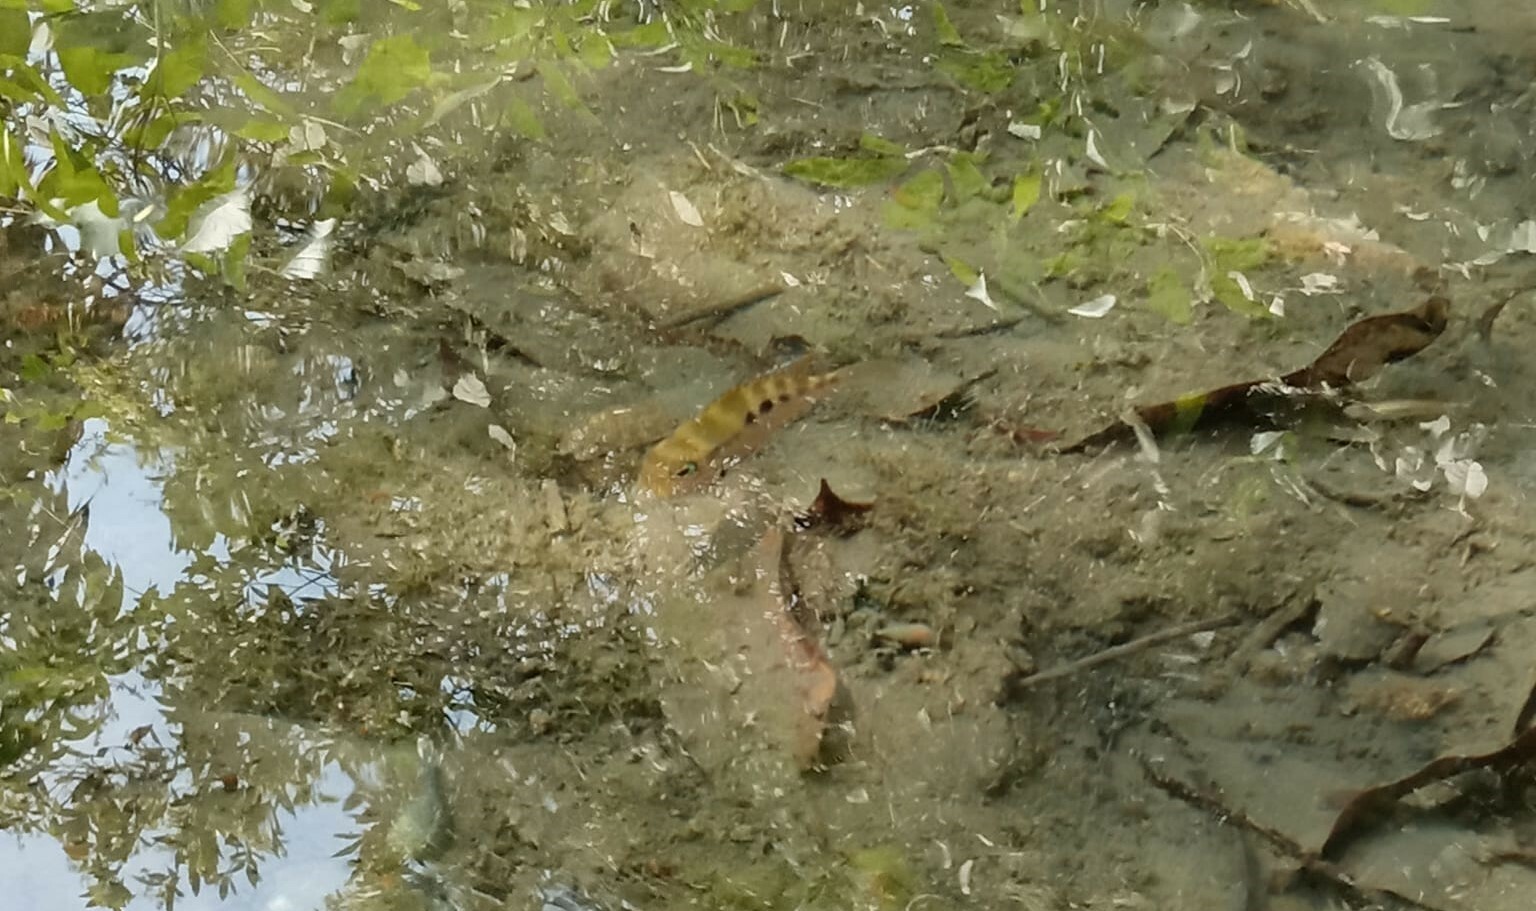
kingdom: Animalia
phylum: Chordata
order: Perciformes
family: Cichlidae
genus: Thorichthys
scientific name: Thorichthys maculipinnis
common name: Spotcheek cichlid
